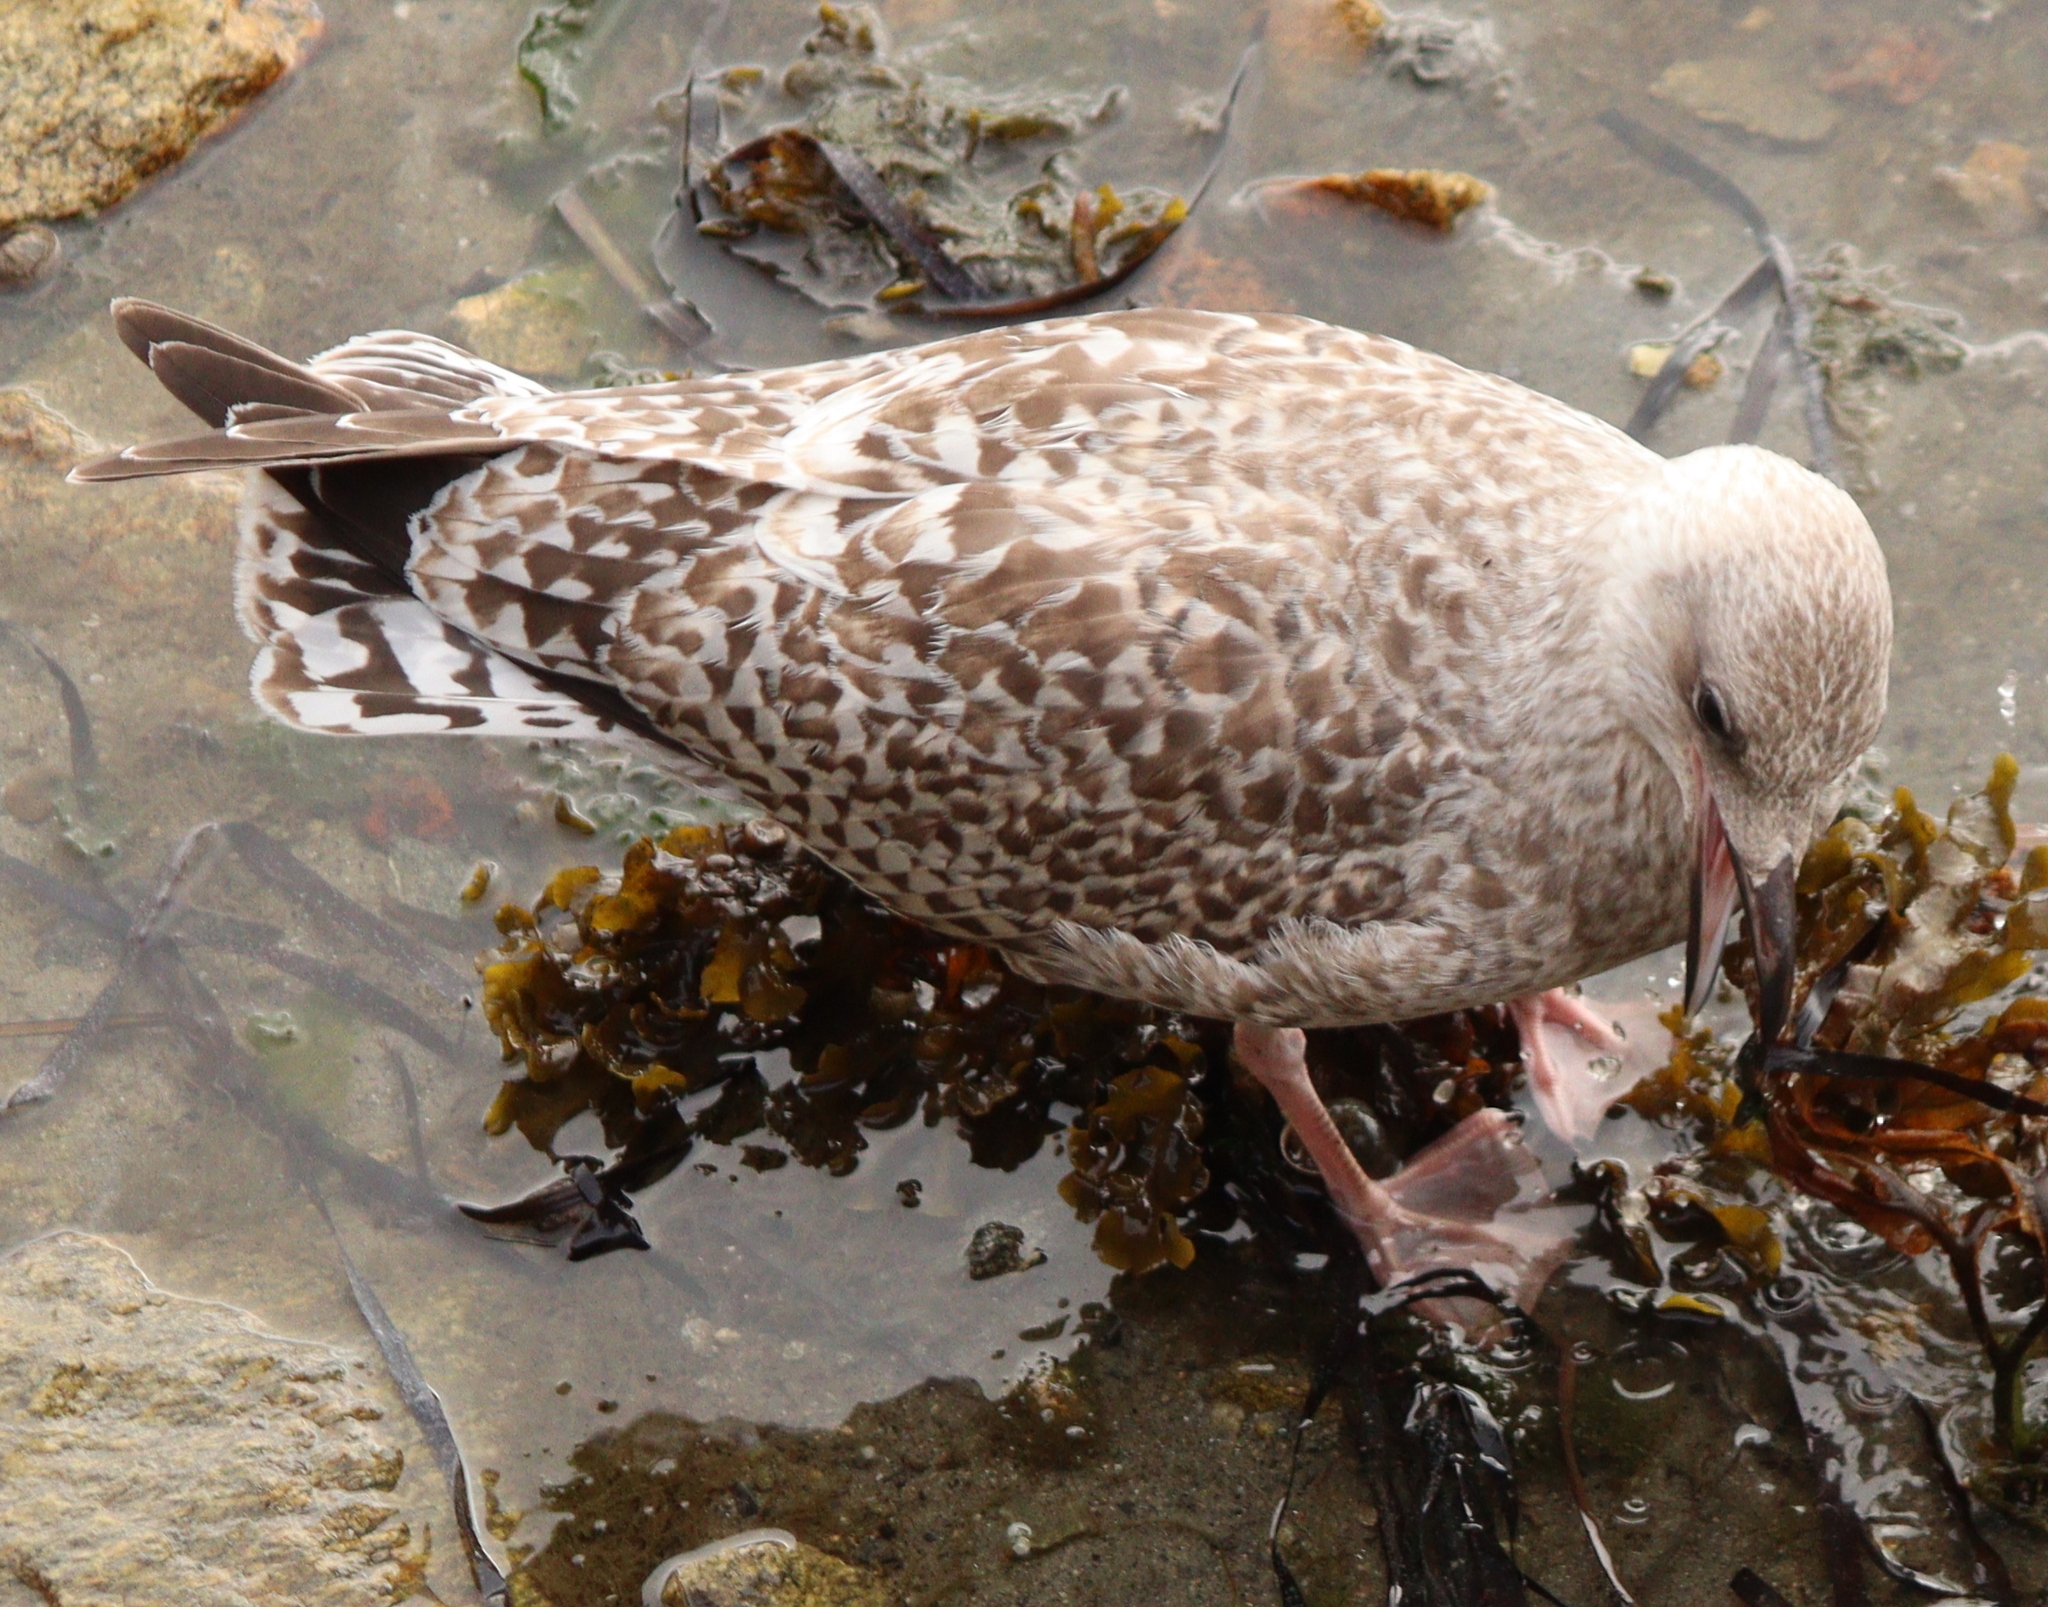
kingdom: Animalia
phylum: Chordata
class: Aves
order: Charadriiformes
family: Laridae
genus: Larus
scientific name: Larus argentatus
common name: Herring gull
